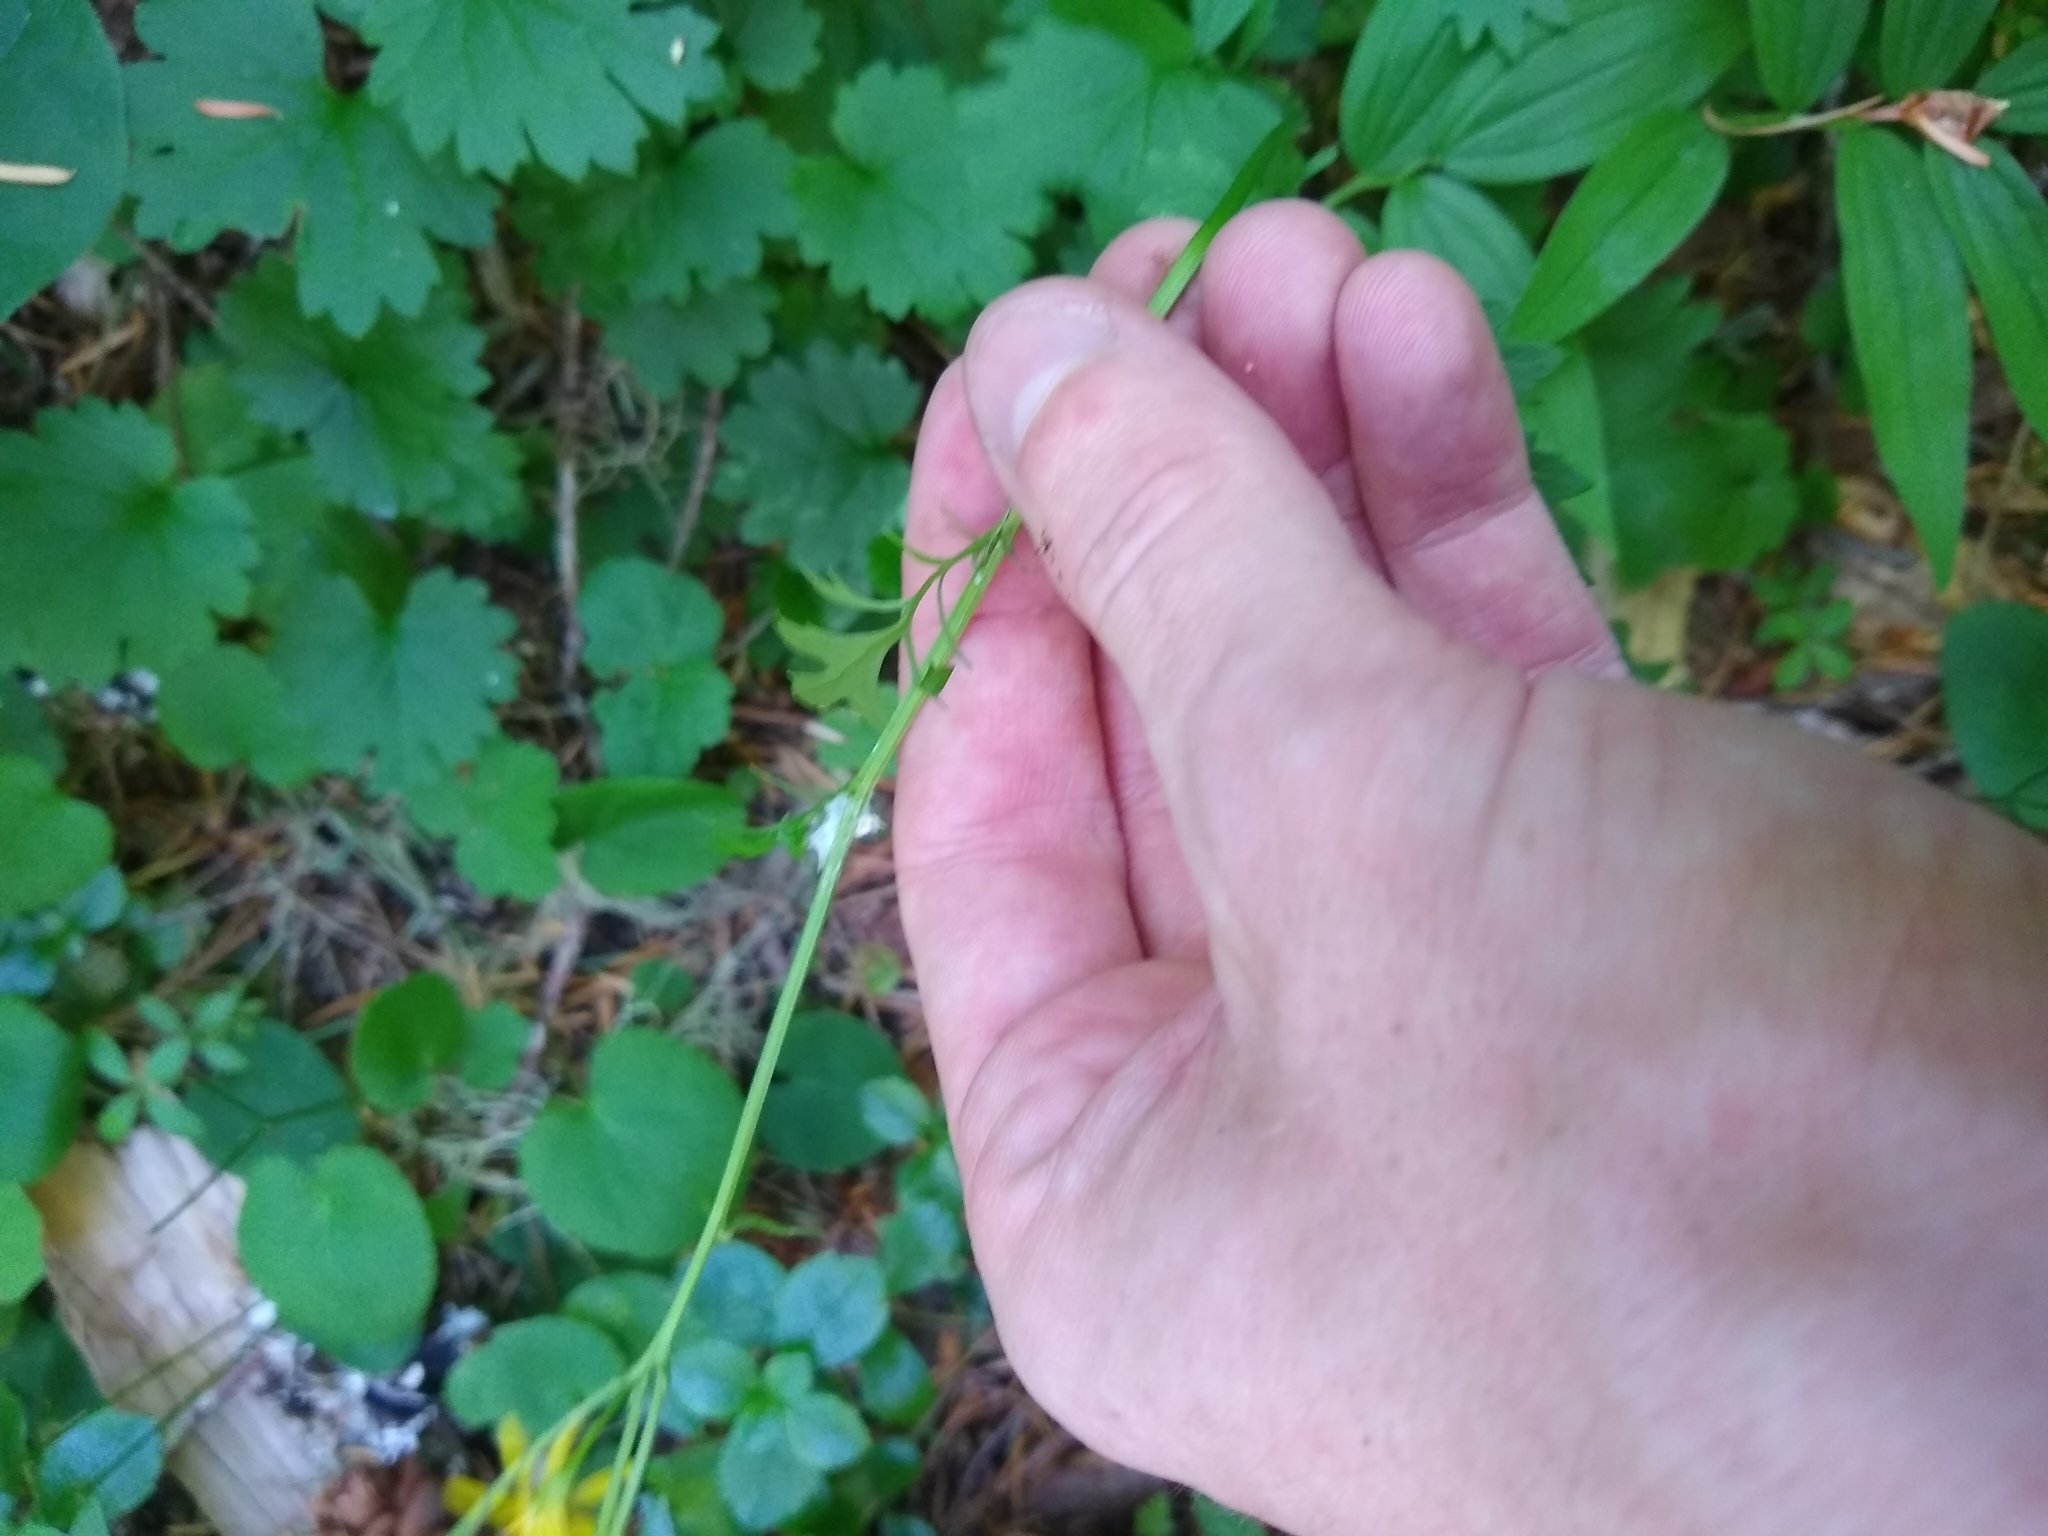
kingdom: Plantae
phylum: Tracheophyta
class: Magnoliopsida
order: Asterales
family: Asteraceae
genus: Packera
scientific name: Packera bolanderi
